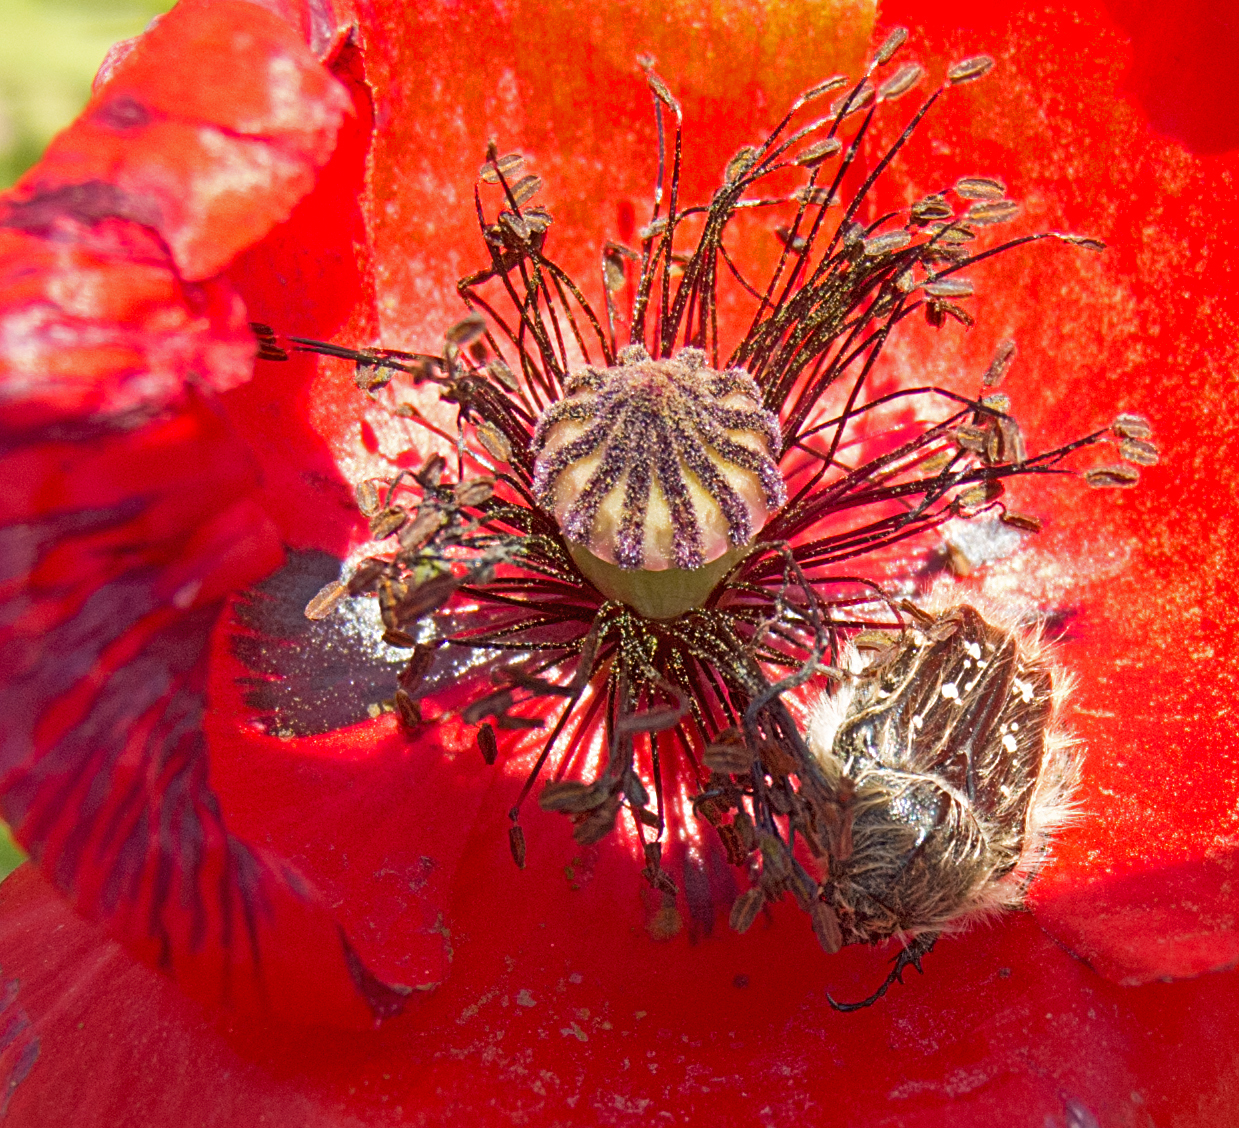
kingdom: Animalia
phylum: Arthropoda
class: Insecta
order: Coleoptera
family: Scarabaeidae
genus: Tropinota
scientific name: Tropinota squalida
